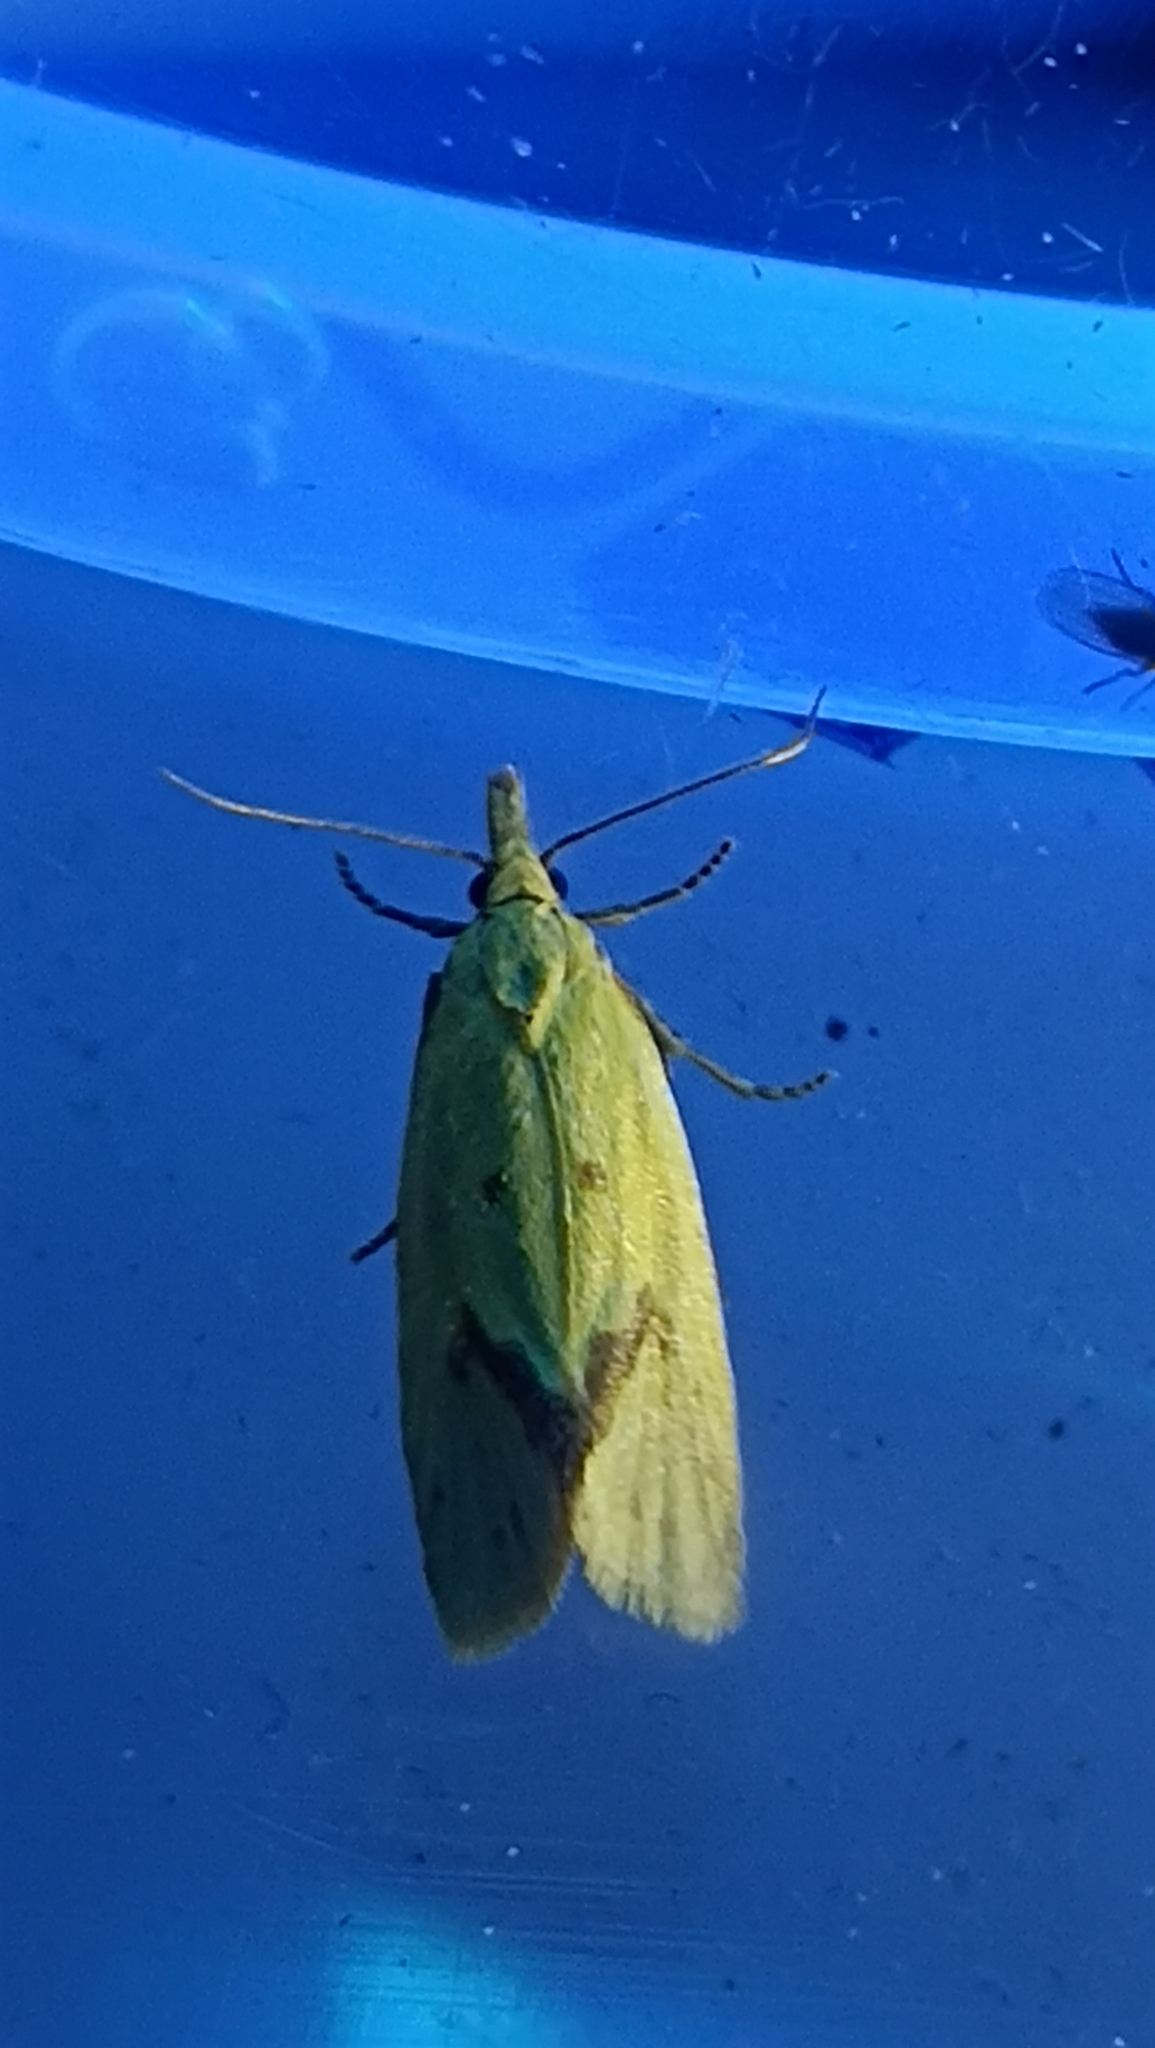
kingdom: Animalia
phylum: Arthropoda
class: Insecta
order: Lepidoptera
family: Tortricidae
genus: Agapeta
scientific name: Agapeta hamana
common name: Common yellow conch
